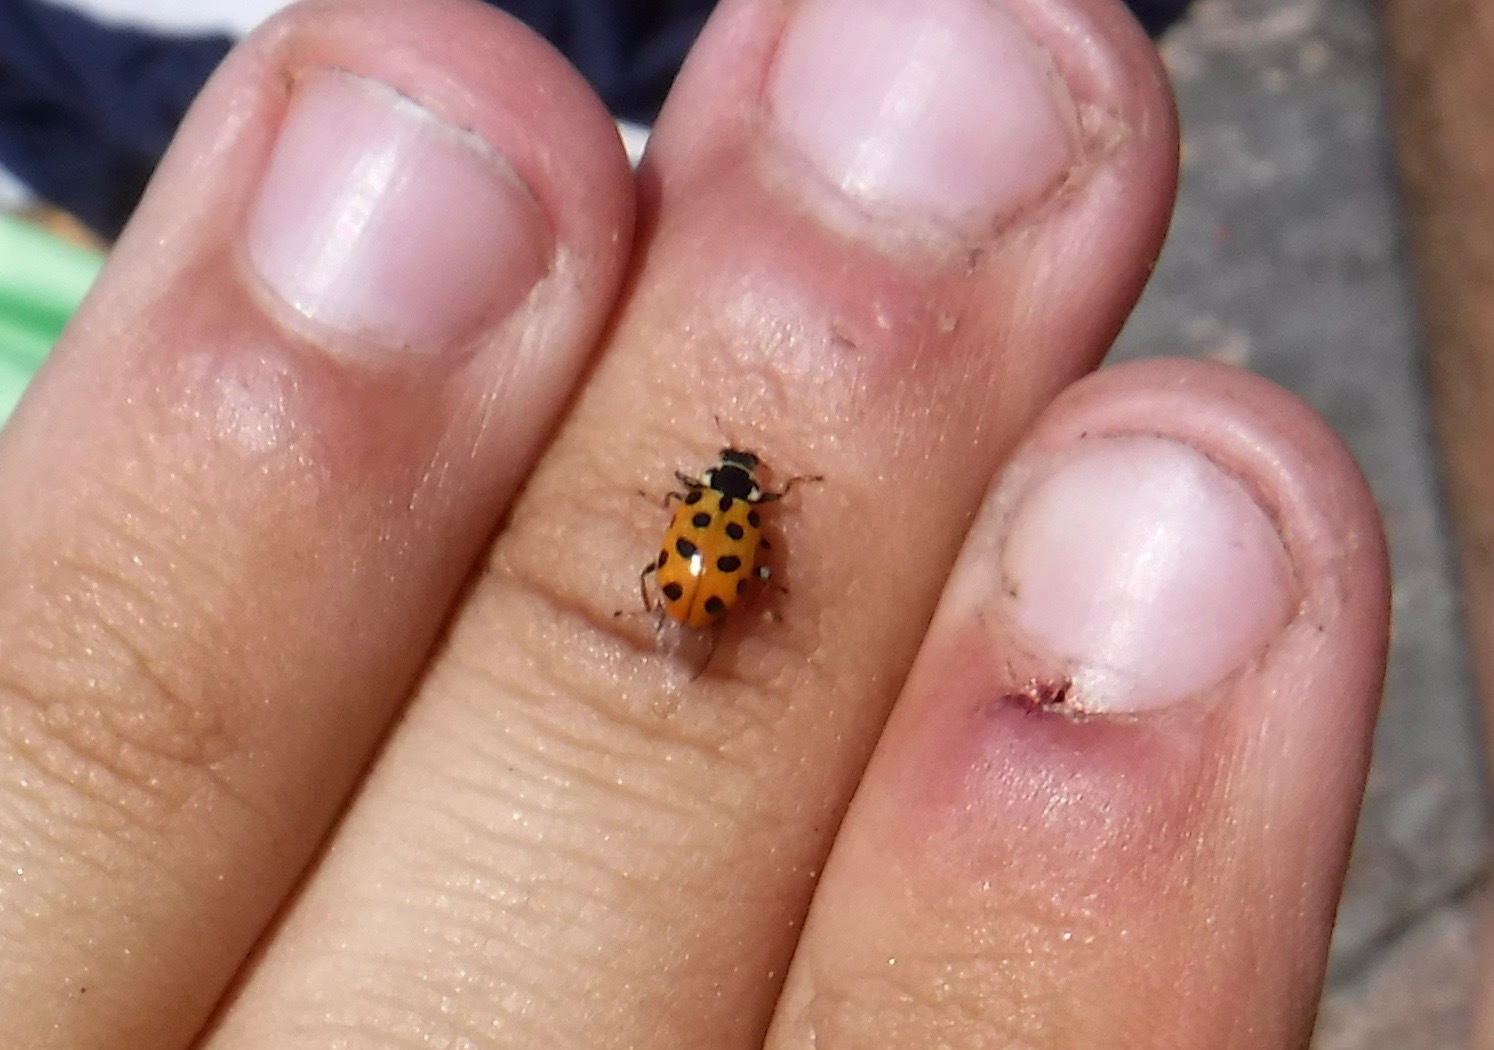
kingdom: Animalia
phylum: Arthropoda
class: Insecta
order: Coleoptera
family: Coccinellidae
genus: Hippodamia
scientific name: Hippodamia tredecimpunctata
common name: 13-spot ladybird
